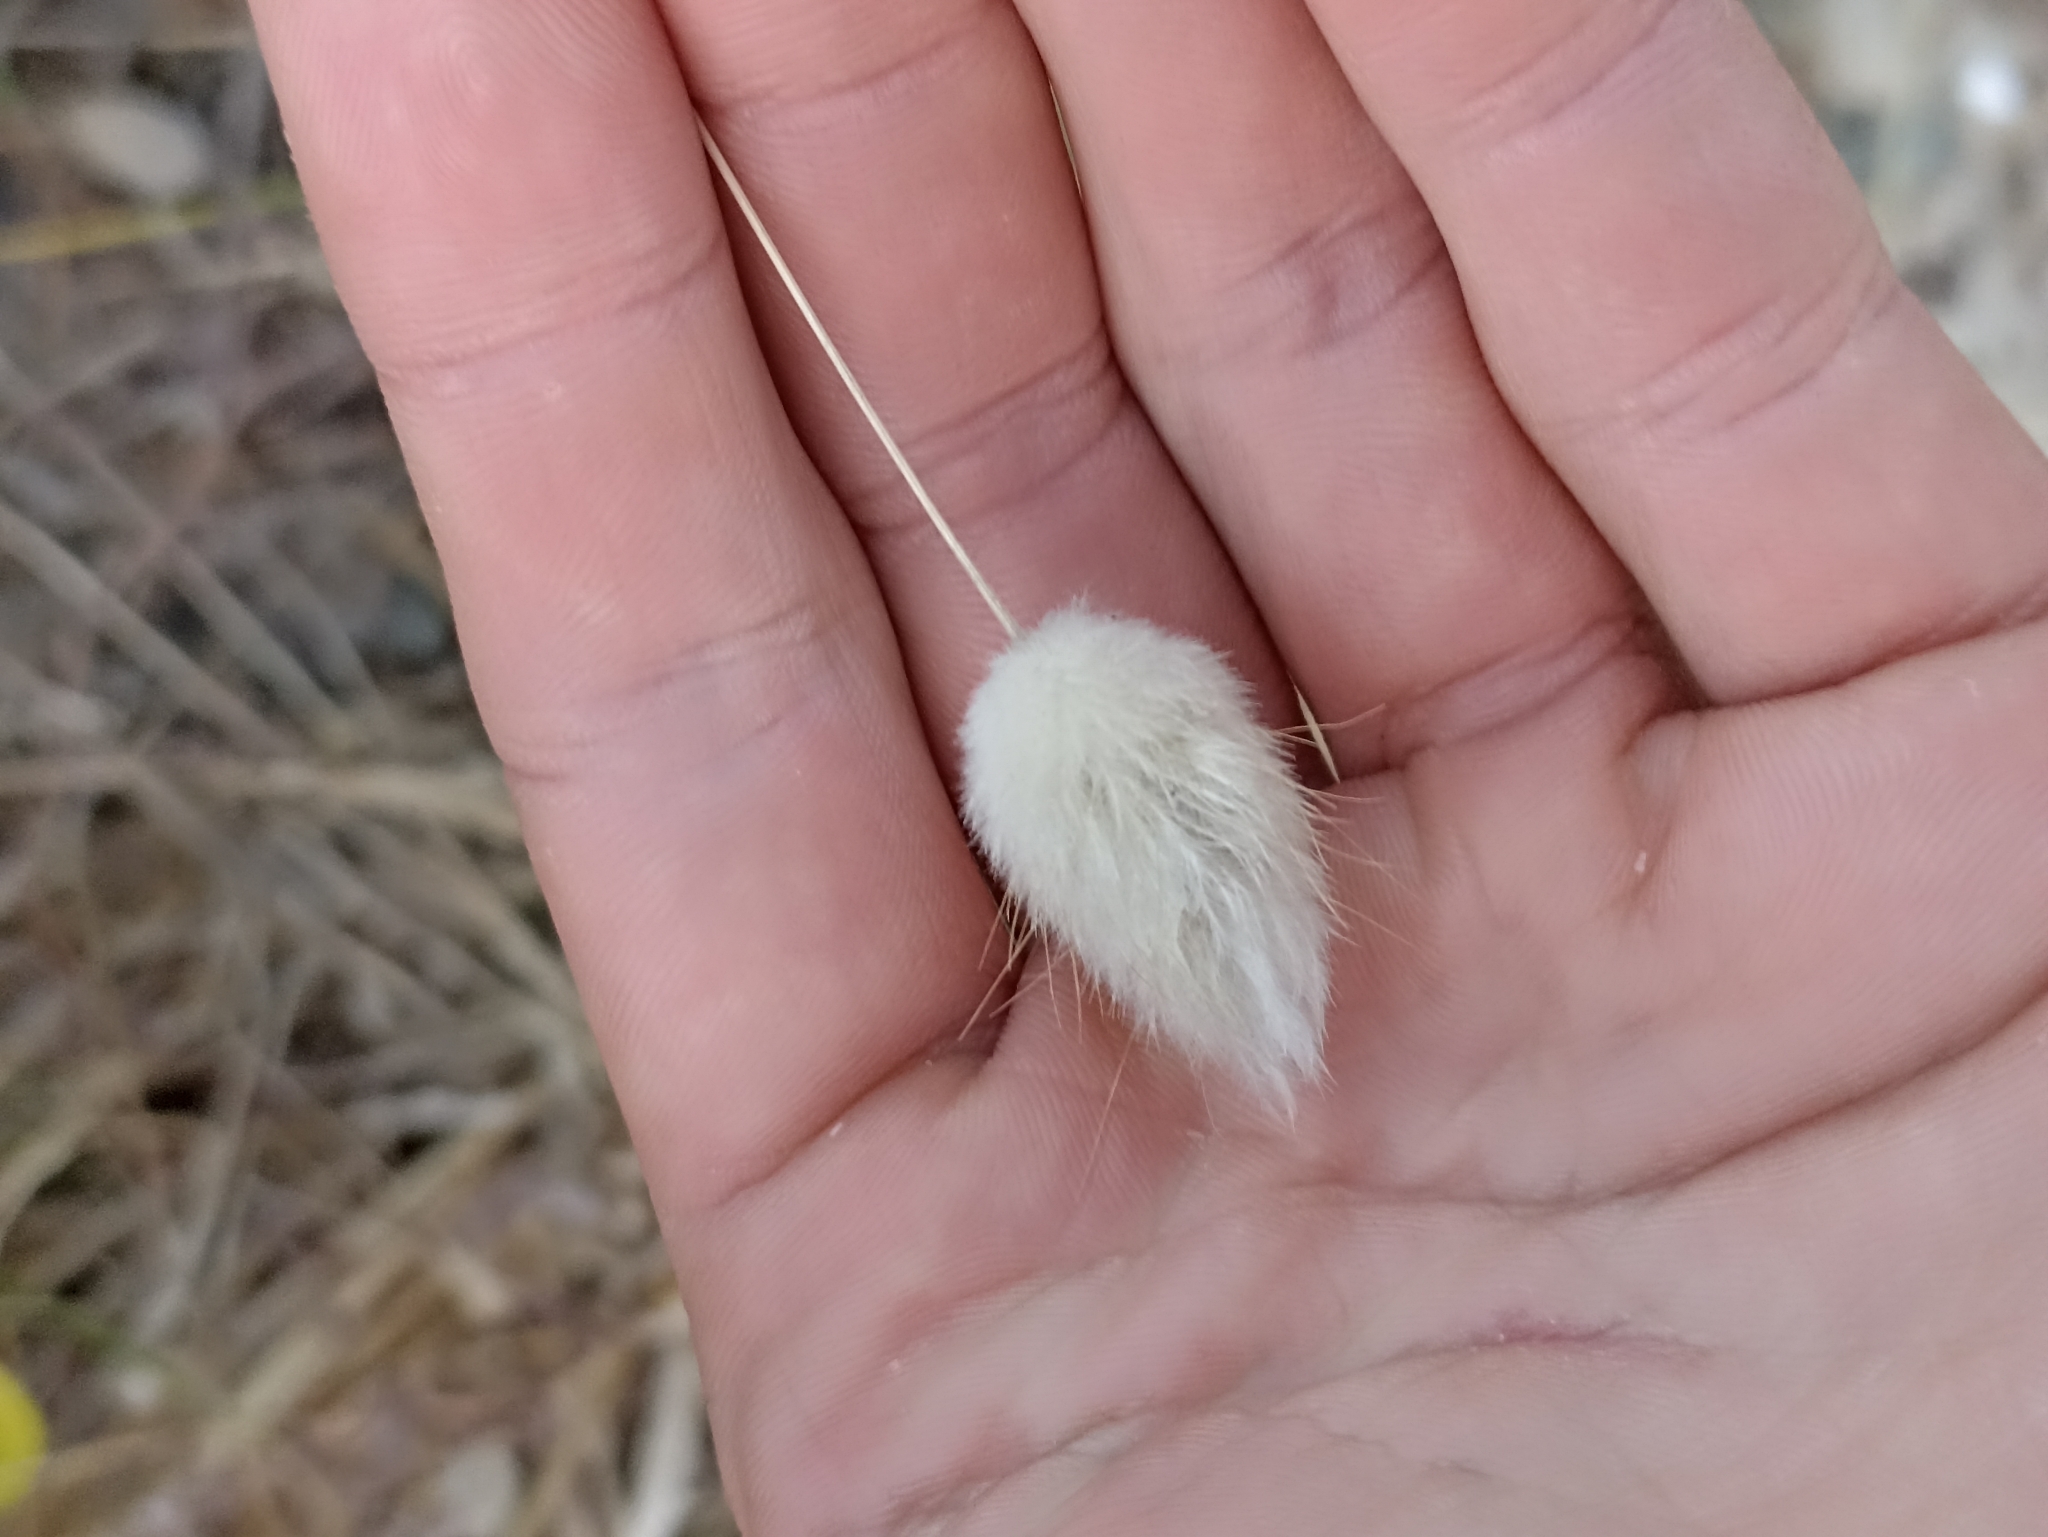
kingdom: Plantae
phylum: Tracheophyta
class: Liliopsida
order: Poales
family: Poaceae
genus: Lagurus
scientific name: Lagurus ovatus
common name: Hare's-tail
